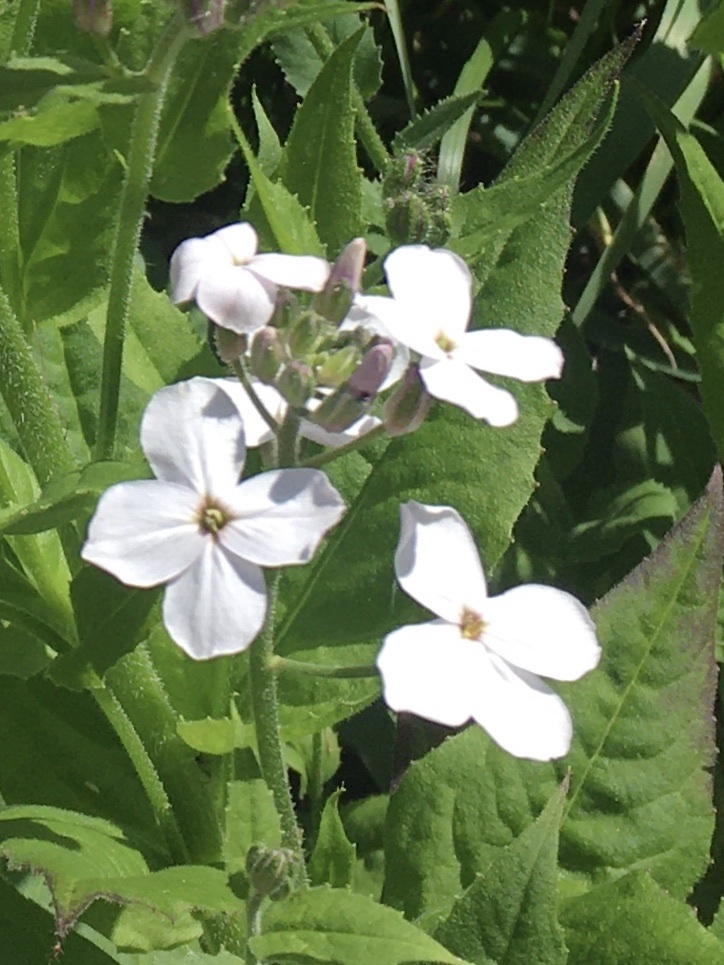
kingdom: Plantae
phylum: Tracheophyta
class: Magnoliopsida
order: Brassicales
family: Brassicaceae
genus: Hesperis
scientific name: Hesperis matronalis
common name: Dame's-violet
